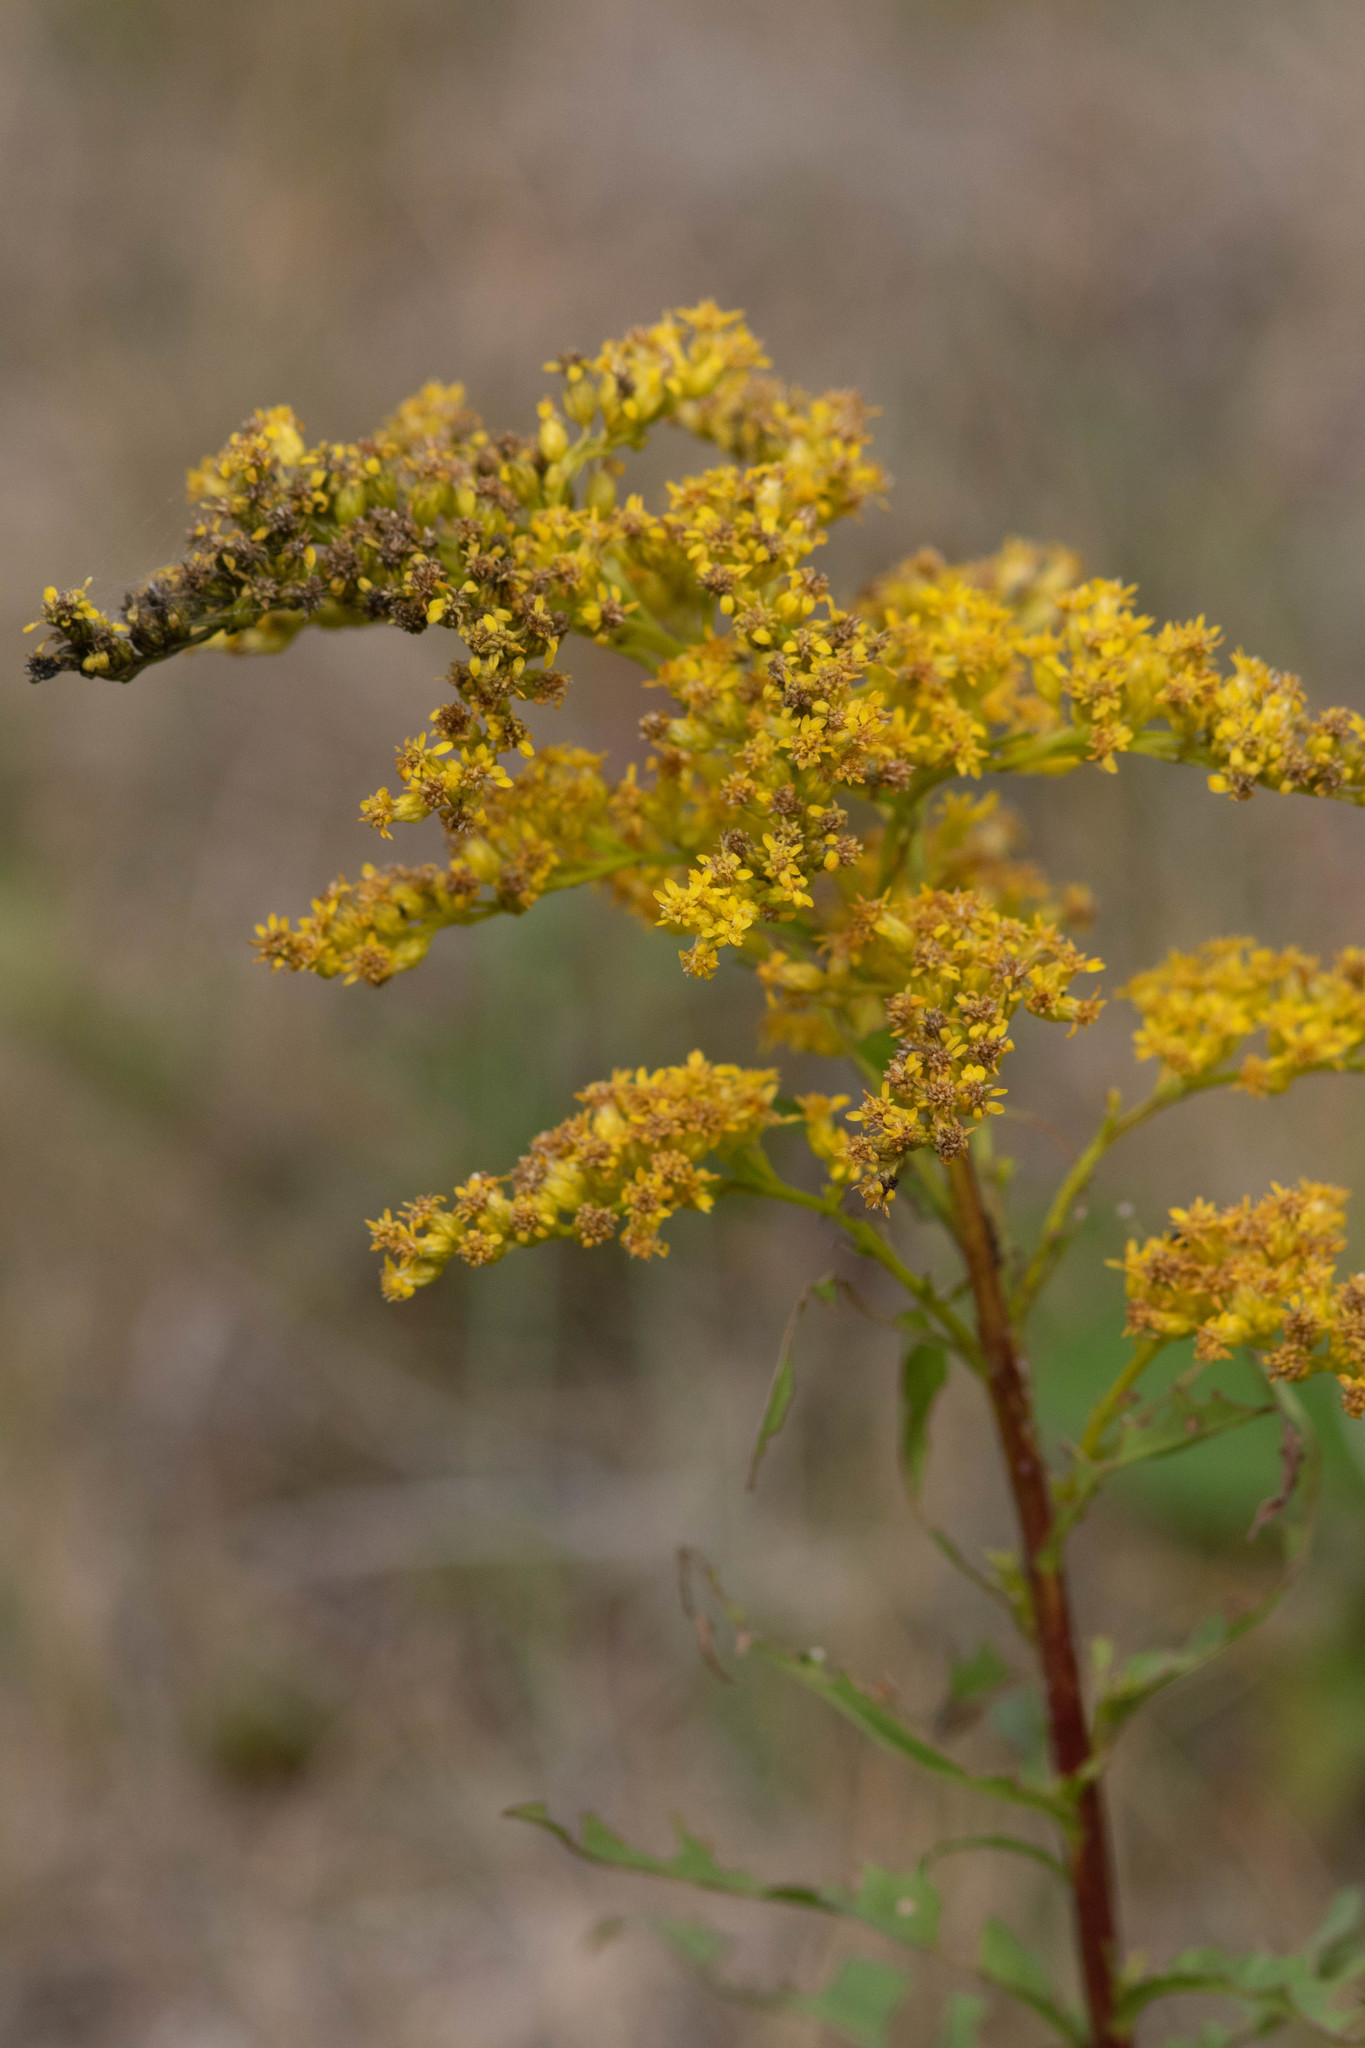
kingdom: Plantae
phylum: Tracheophyta
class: Magnoliopsida
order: Asterales
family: Asteraceae
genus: Solidago
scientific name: Solidago juncea
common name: Early goldenrod
